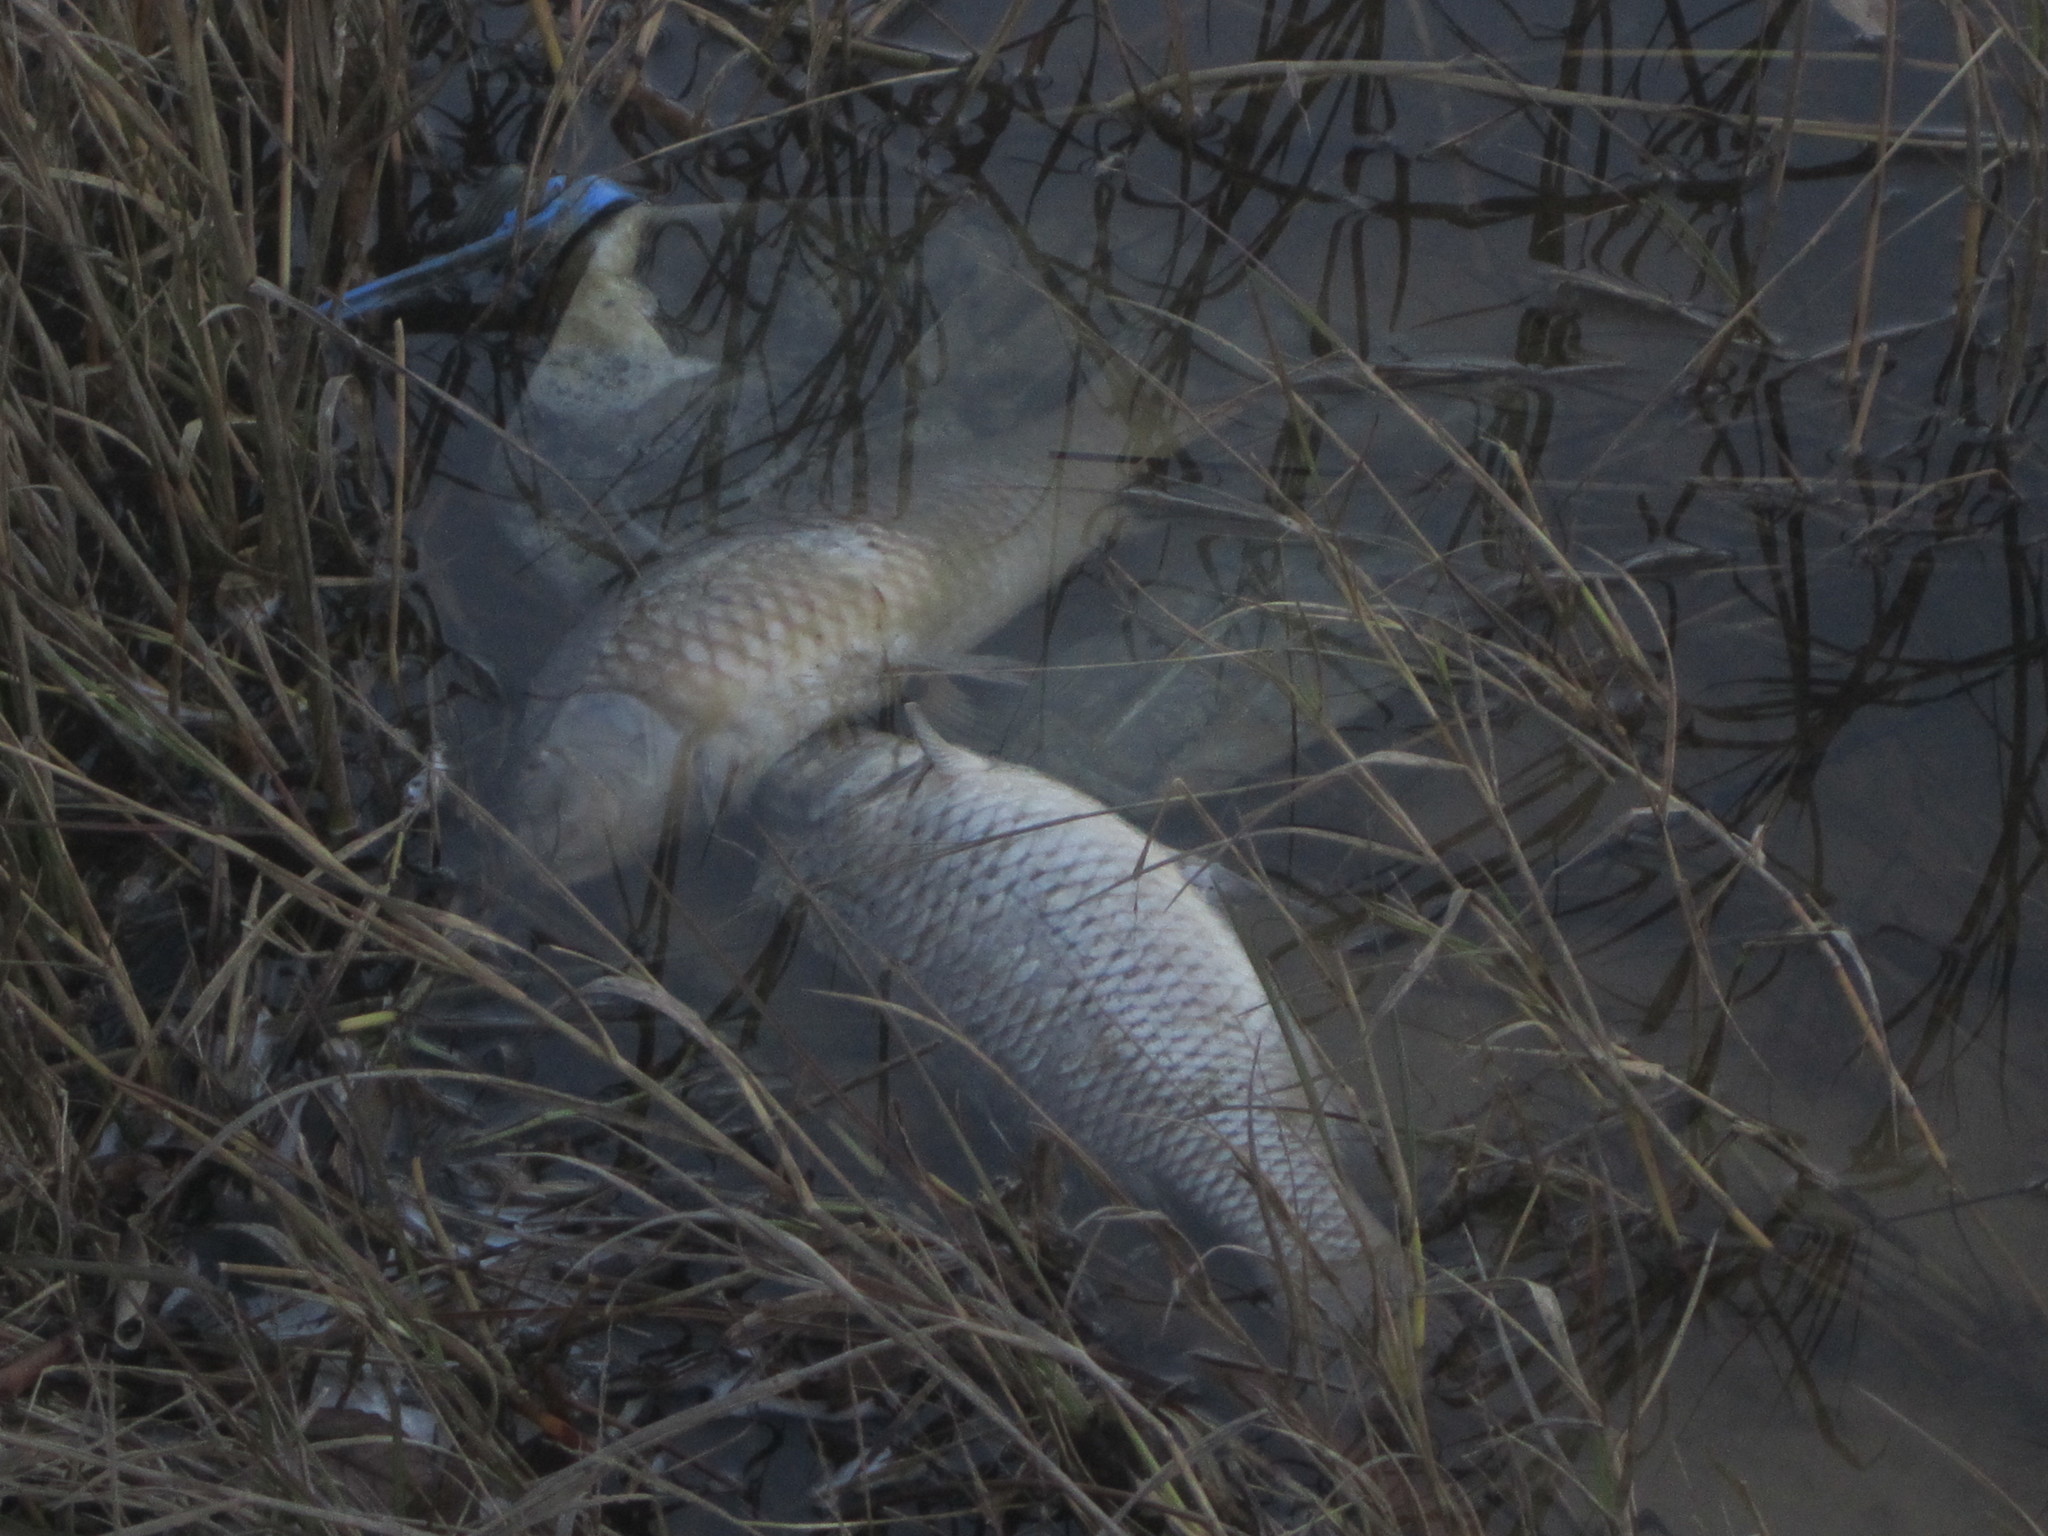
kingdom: Animalia
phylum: Chordata
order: Cypriniformes
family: Cyprinidae
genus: Cyprinus
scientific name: Cyprinus carpio
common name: Common carp
